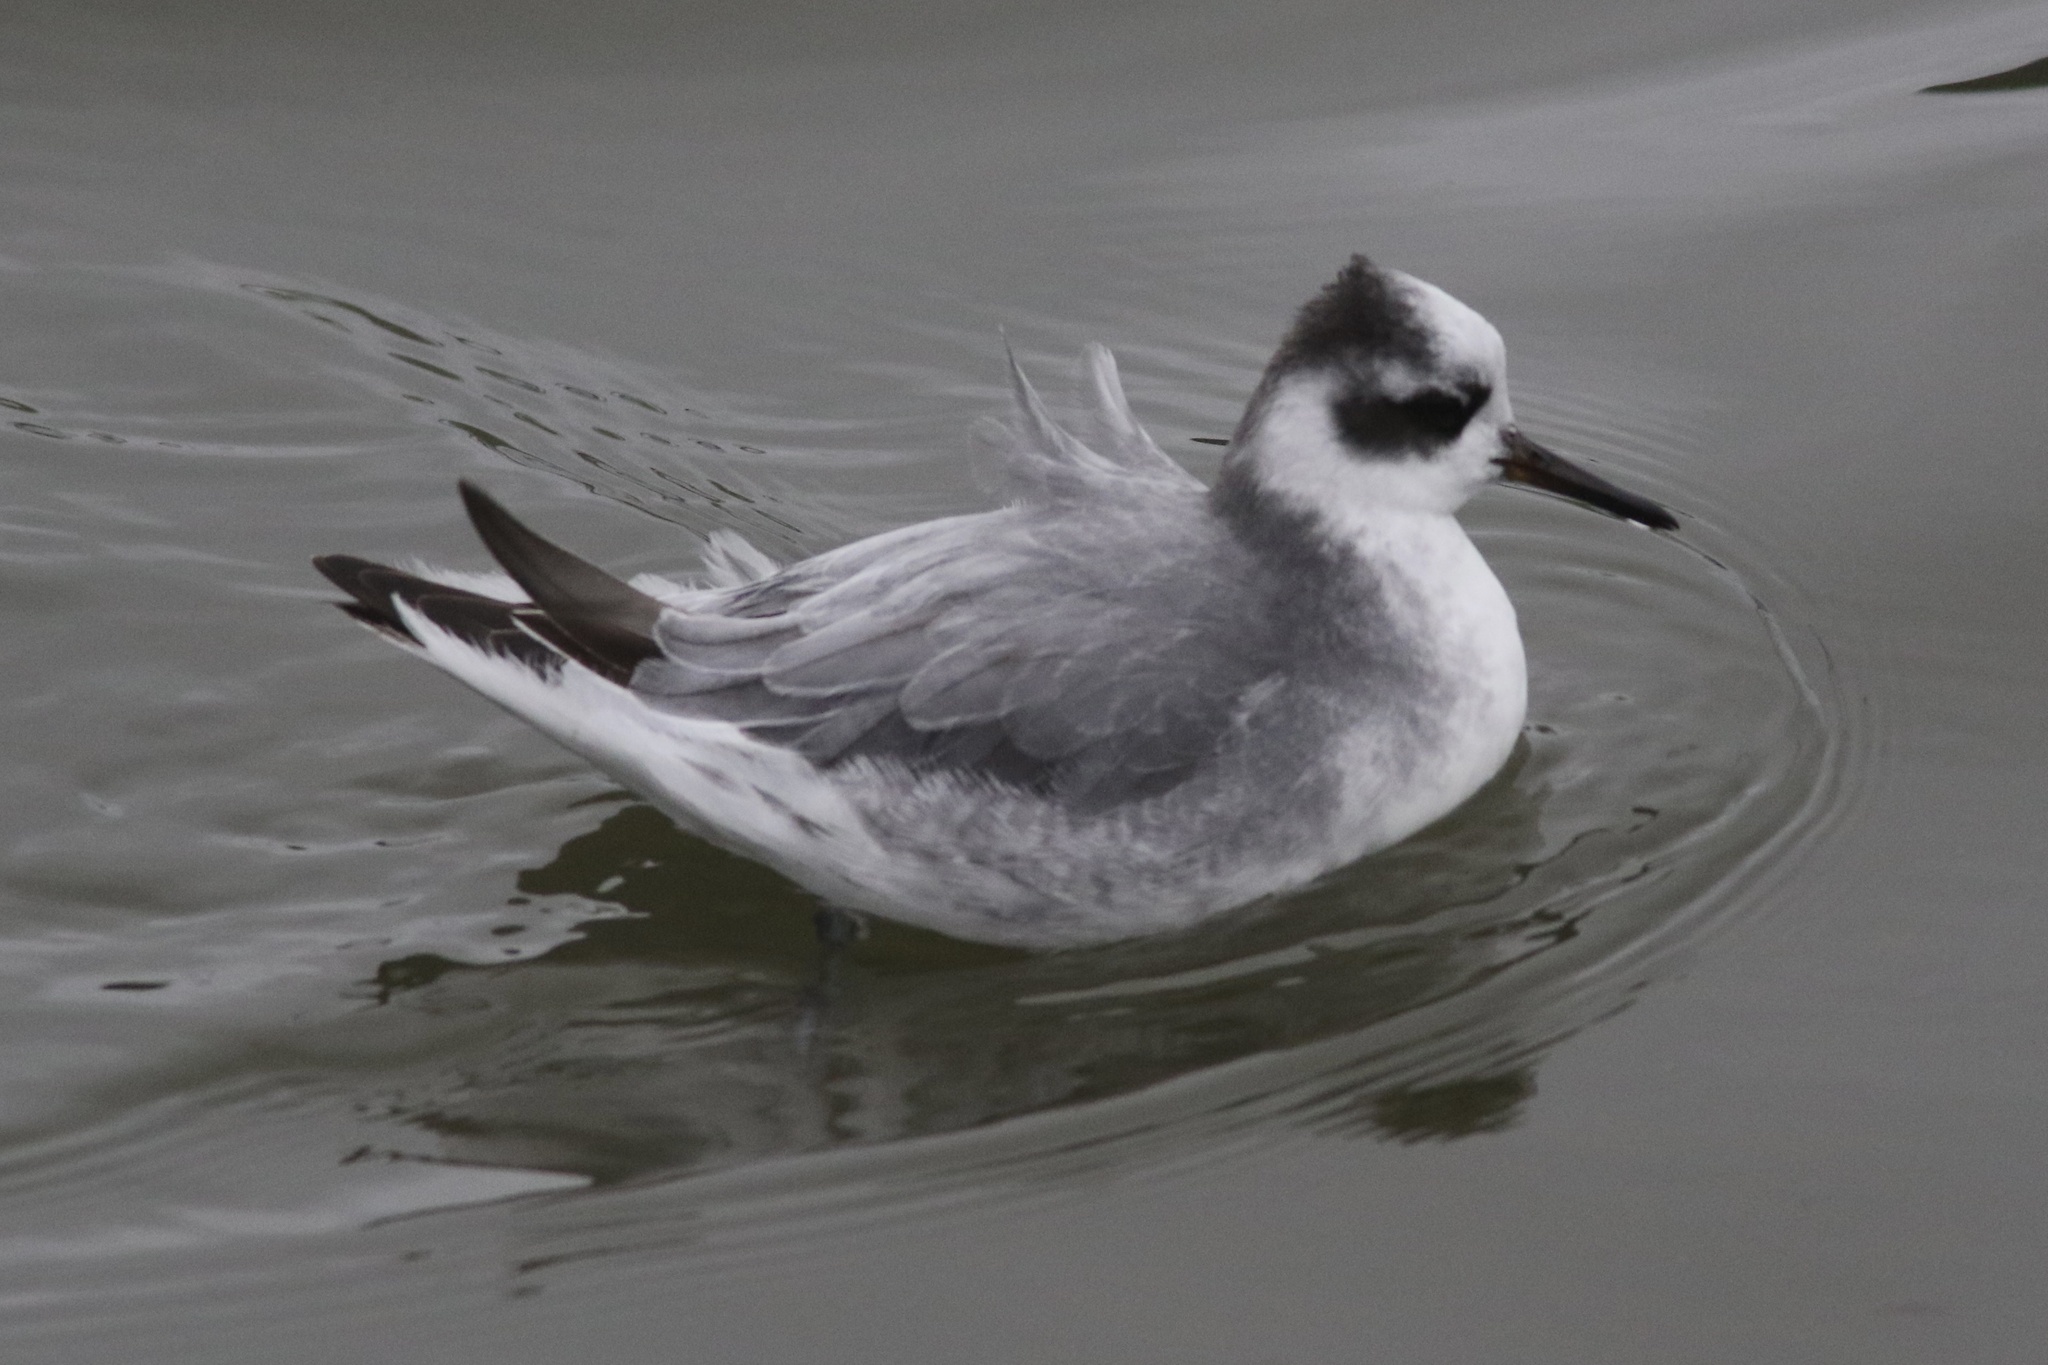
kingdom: Animalia
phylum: Chordata
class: Aves
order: Charadriiformes
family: Scolopacidae
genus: Phalaropus
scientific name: Phalaropus fulicarius
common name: Red phalarope
